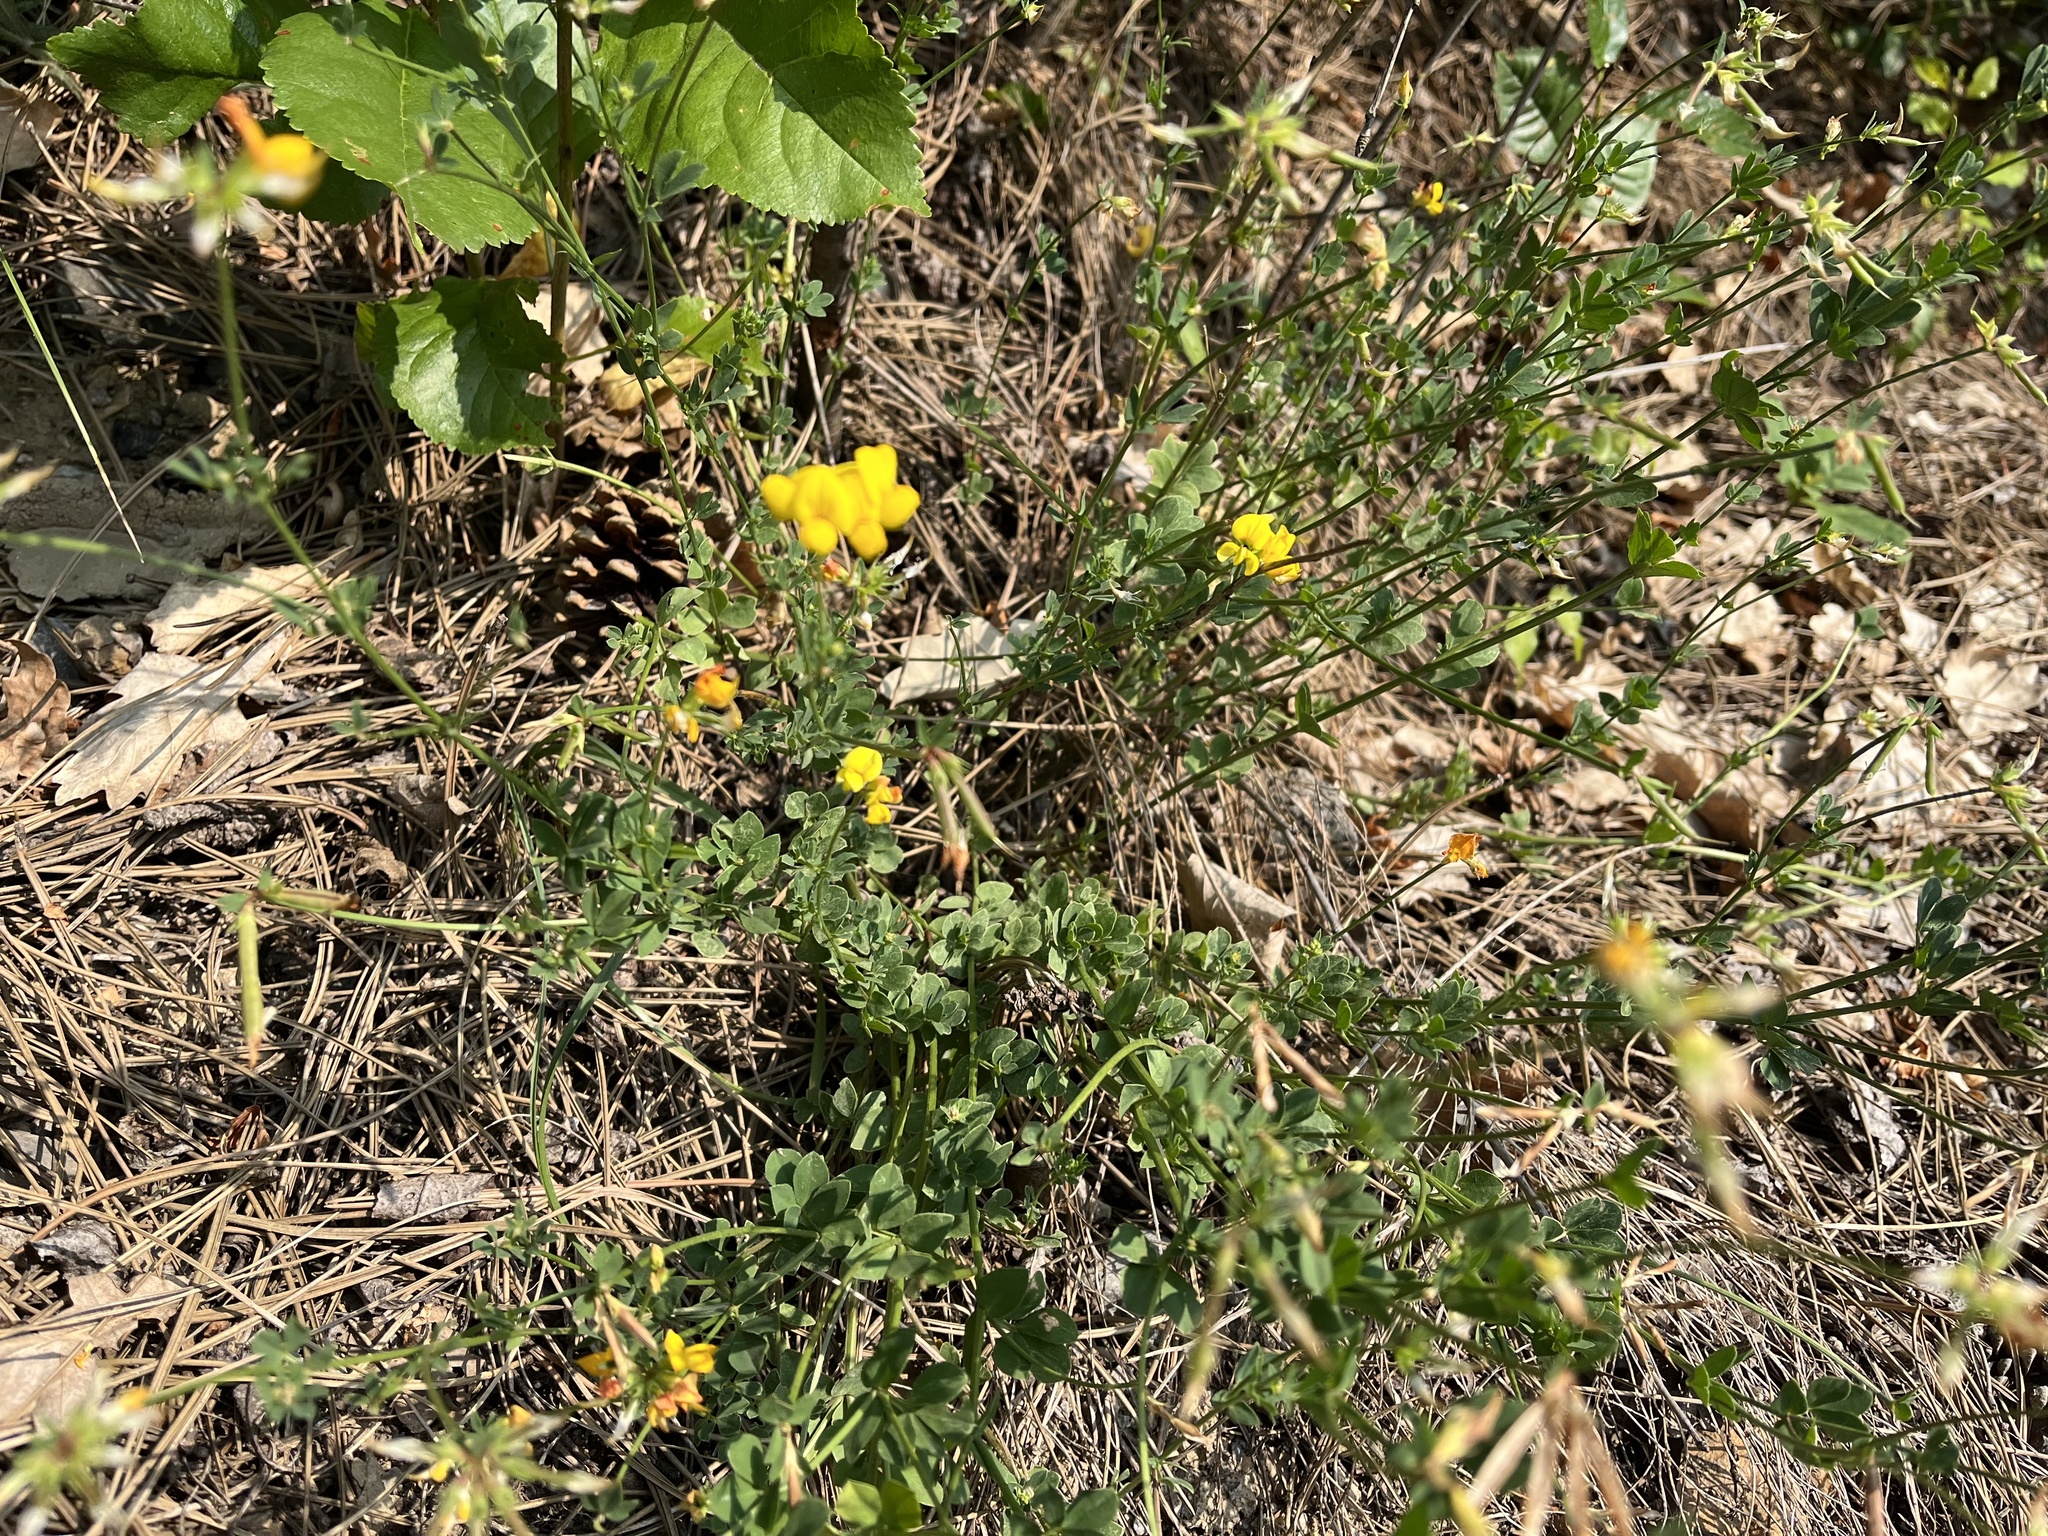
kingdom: Plantae
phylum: Tracheophyta
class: Magnoliopsida
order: Fabales
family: Fabaceae
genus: Lotus
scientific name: Lotus corniculatus
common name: Common bird's-foot-trefoil
